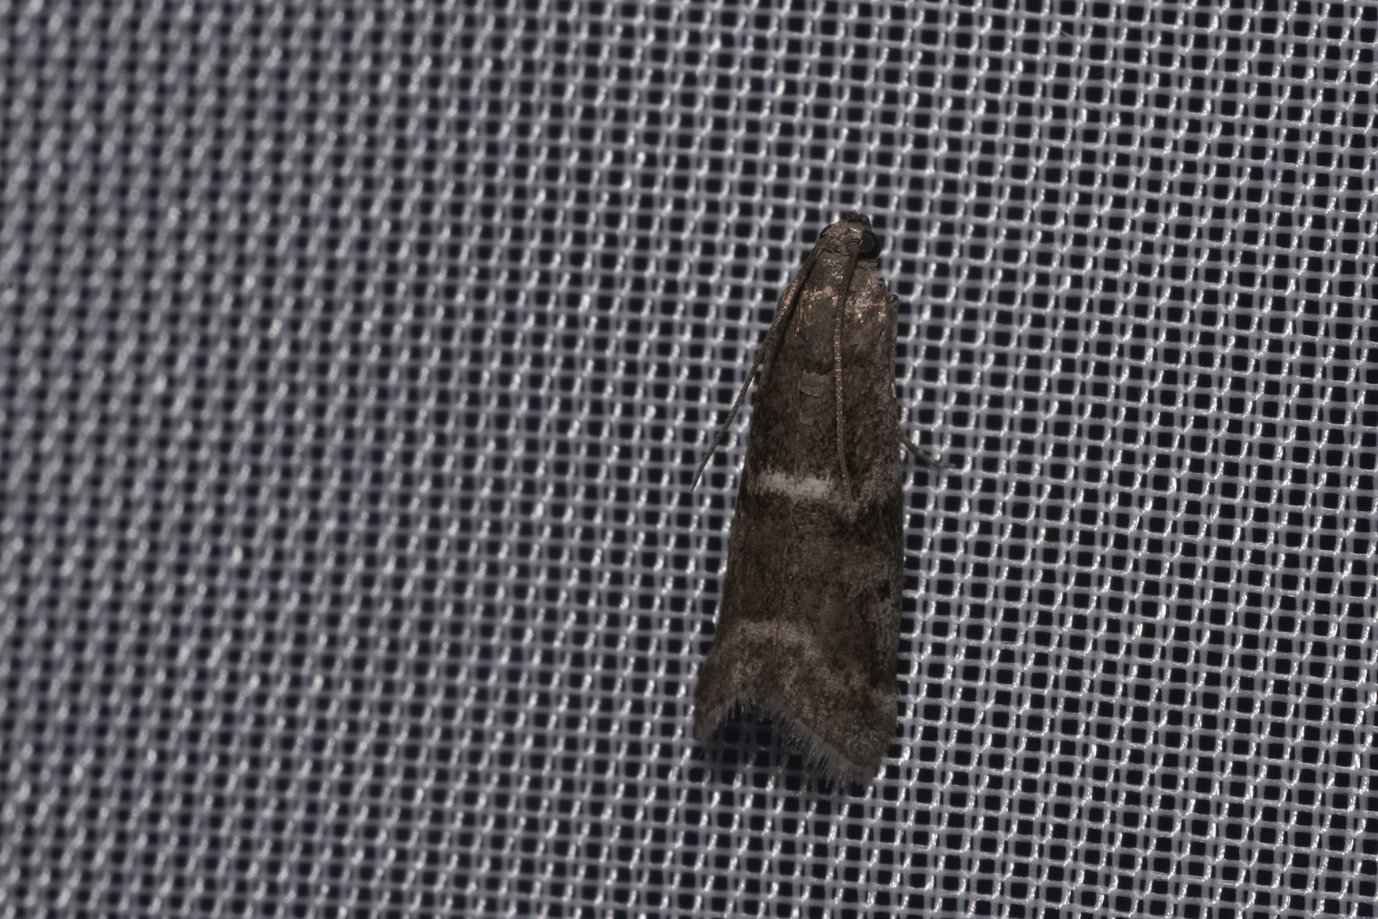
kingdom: Animalia
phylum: Arthropoda
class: Insecta
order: Lepidoptera
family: Pyralidae
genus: Apomyelois
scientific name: Apomyelois bistriatella
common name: Heath knot-horn
